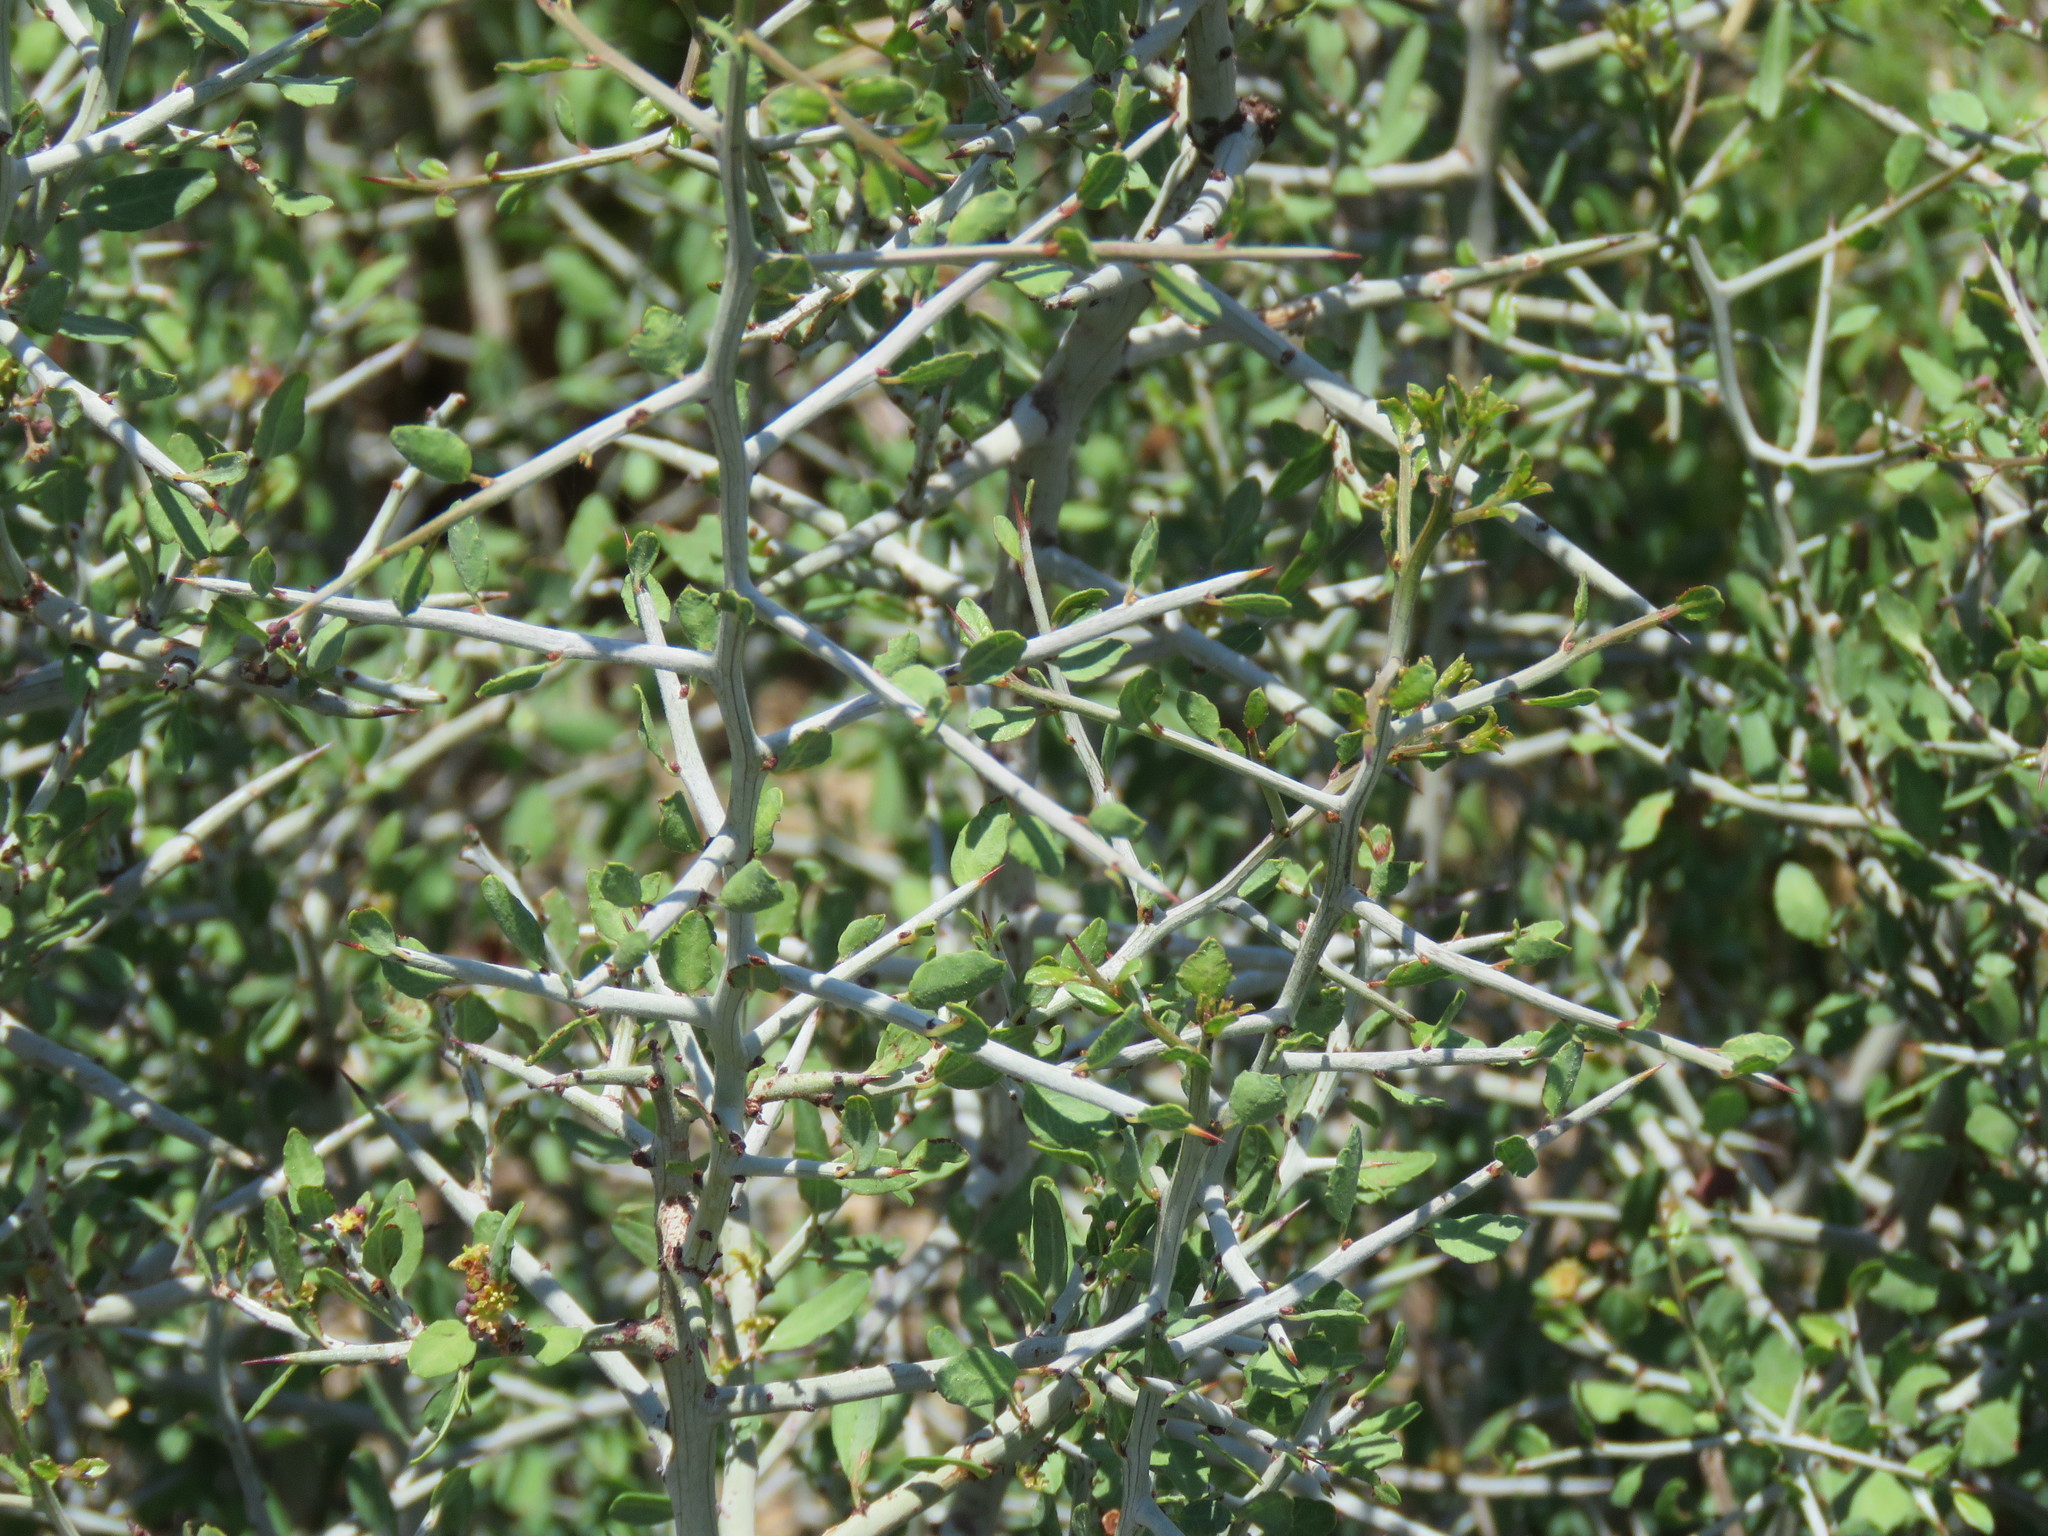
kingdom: Plantae
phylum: Tracheophyta
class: Magnoliopsida
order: Rosales
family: Rhamnaceae
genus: Sarcomphalus
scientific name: Sarcomphalus obtusifolius
